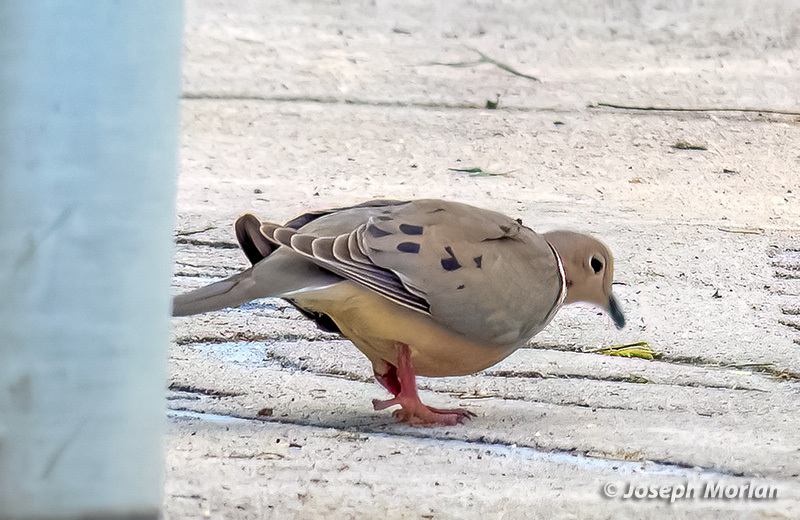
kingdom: Animalia
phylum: Chordata
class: Aves
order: Columbiformes
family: Columbidae
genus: Zenaida
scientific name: Zenaida macroura
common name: Mourning dove
